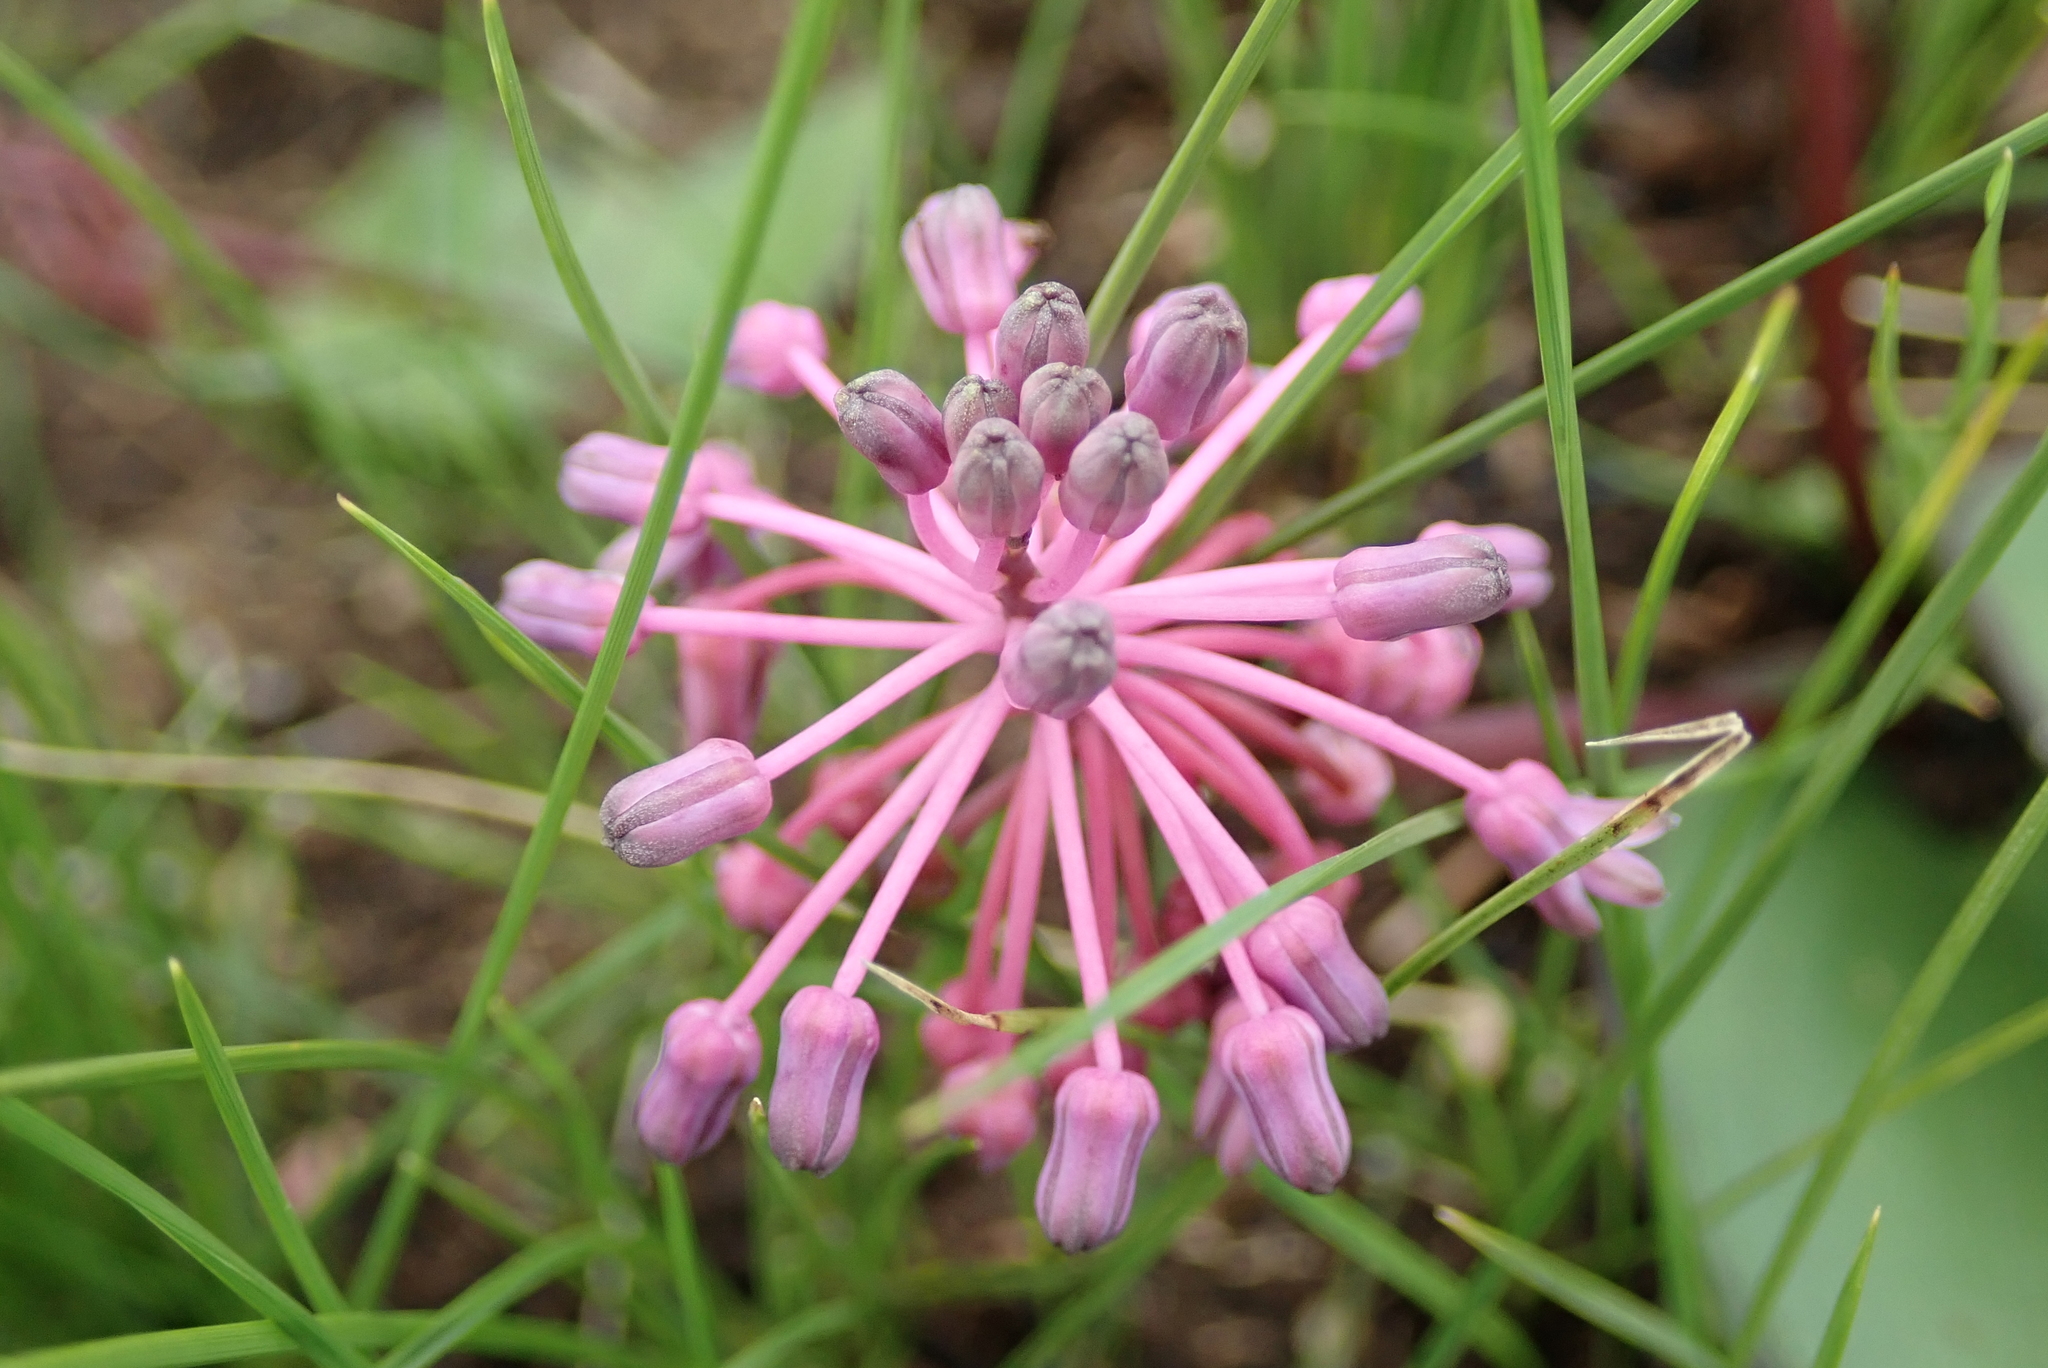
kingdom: Plantae
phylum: Tracheophyta
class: Liliopsida
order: Asparagales
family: Asparagaceae
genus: Ledebouria
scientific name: Ledebouria sandersonii
